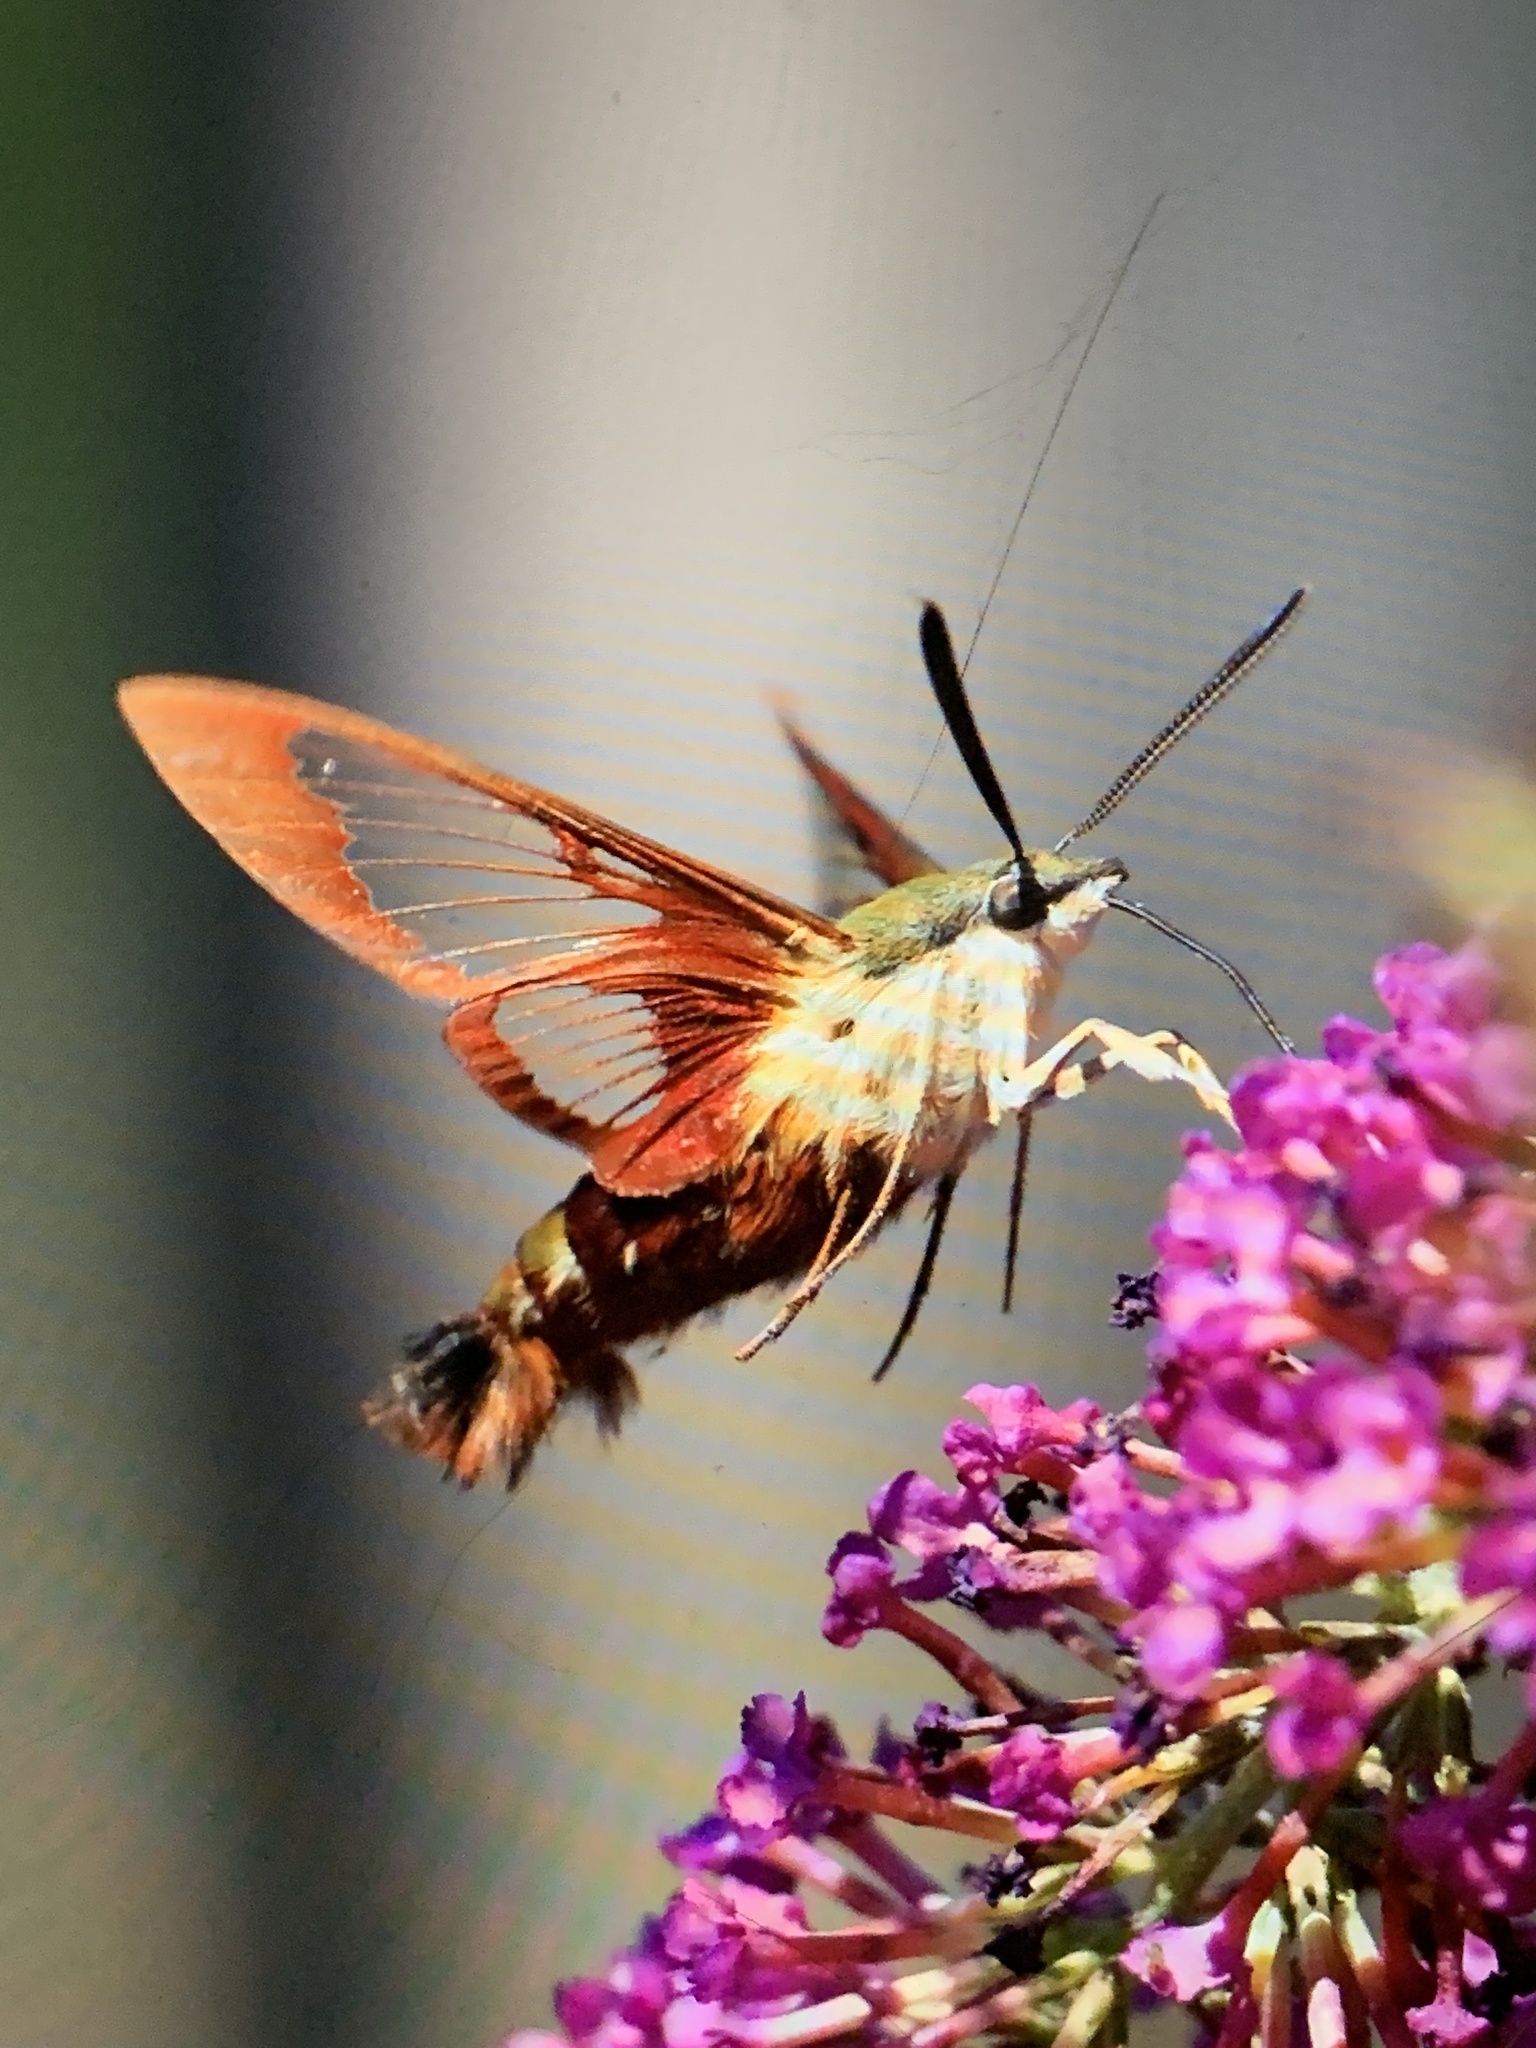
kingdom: Animalia
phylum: Arthropoda
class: Insecta
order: Lepidoptera
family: Sphingidae
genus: Hemaris
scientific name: Hemaris thysbe
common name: Common clear-wing
